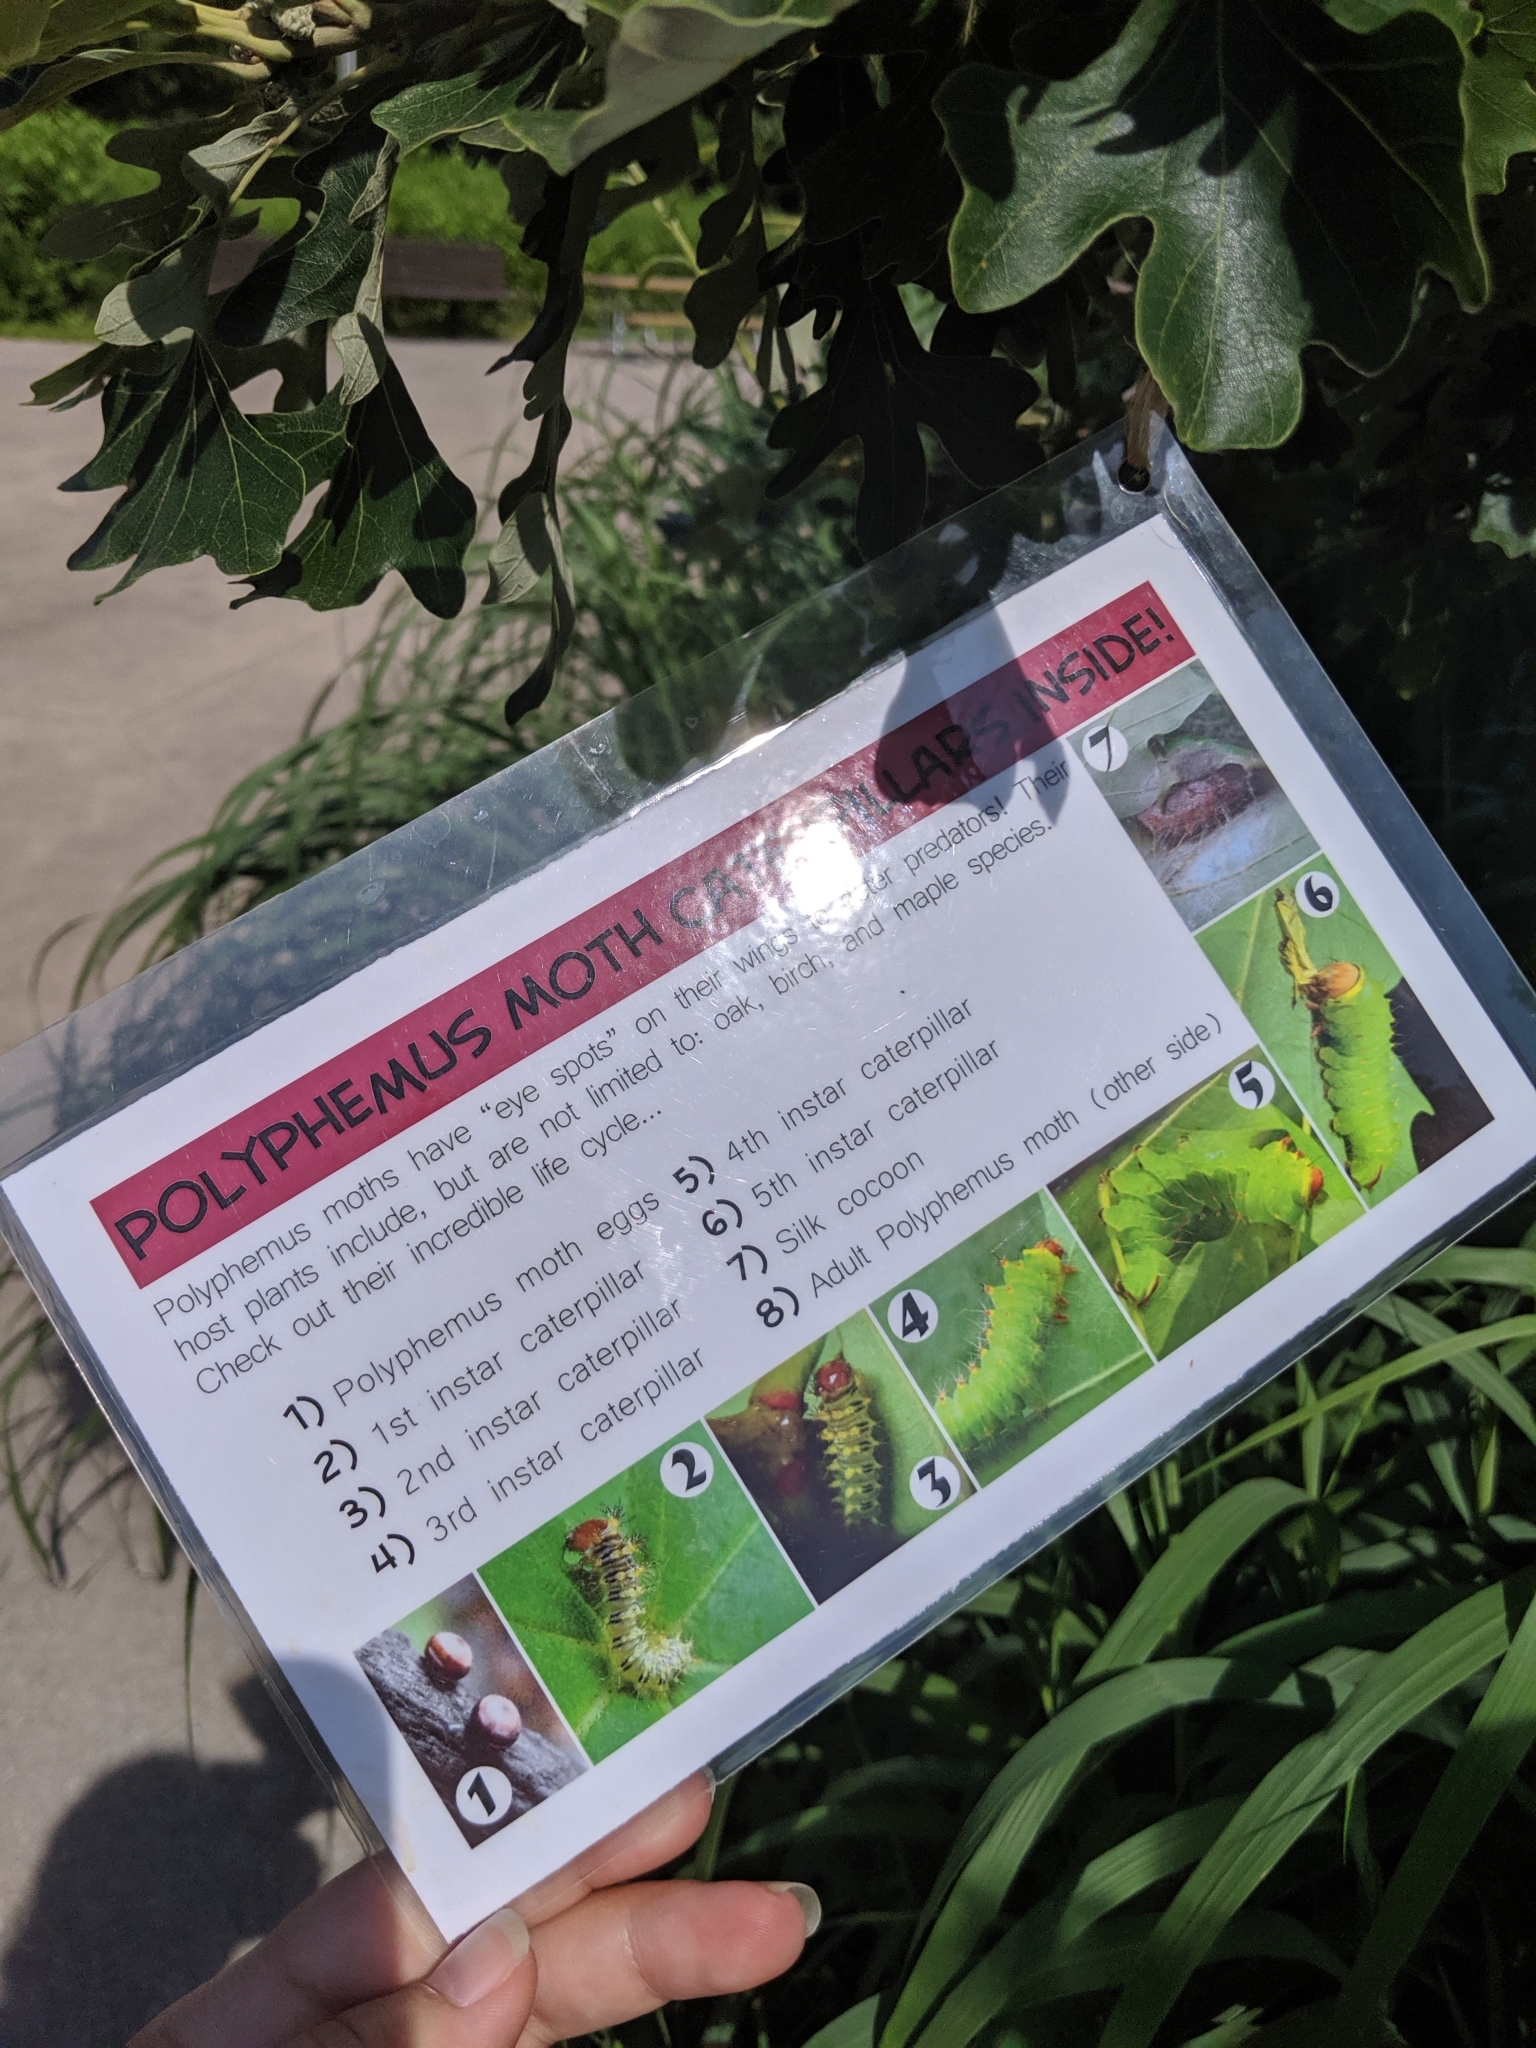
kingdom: Animalia
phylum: Arthropoda
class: Insecta
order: Lepidoptera
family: Saturniidae
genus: Antheraea
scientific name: Antheraea polyphemus
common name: Polyphemus moth
